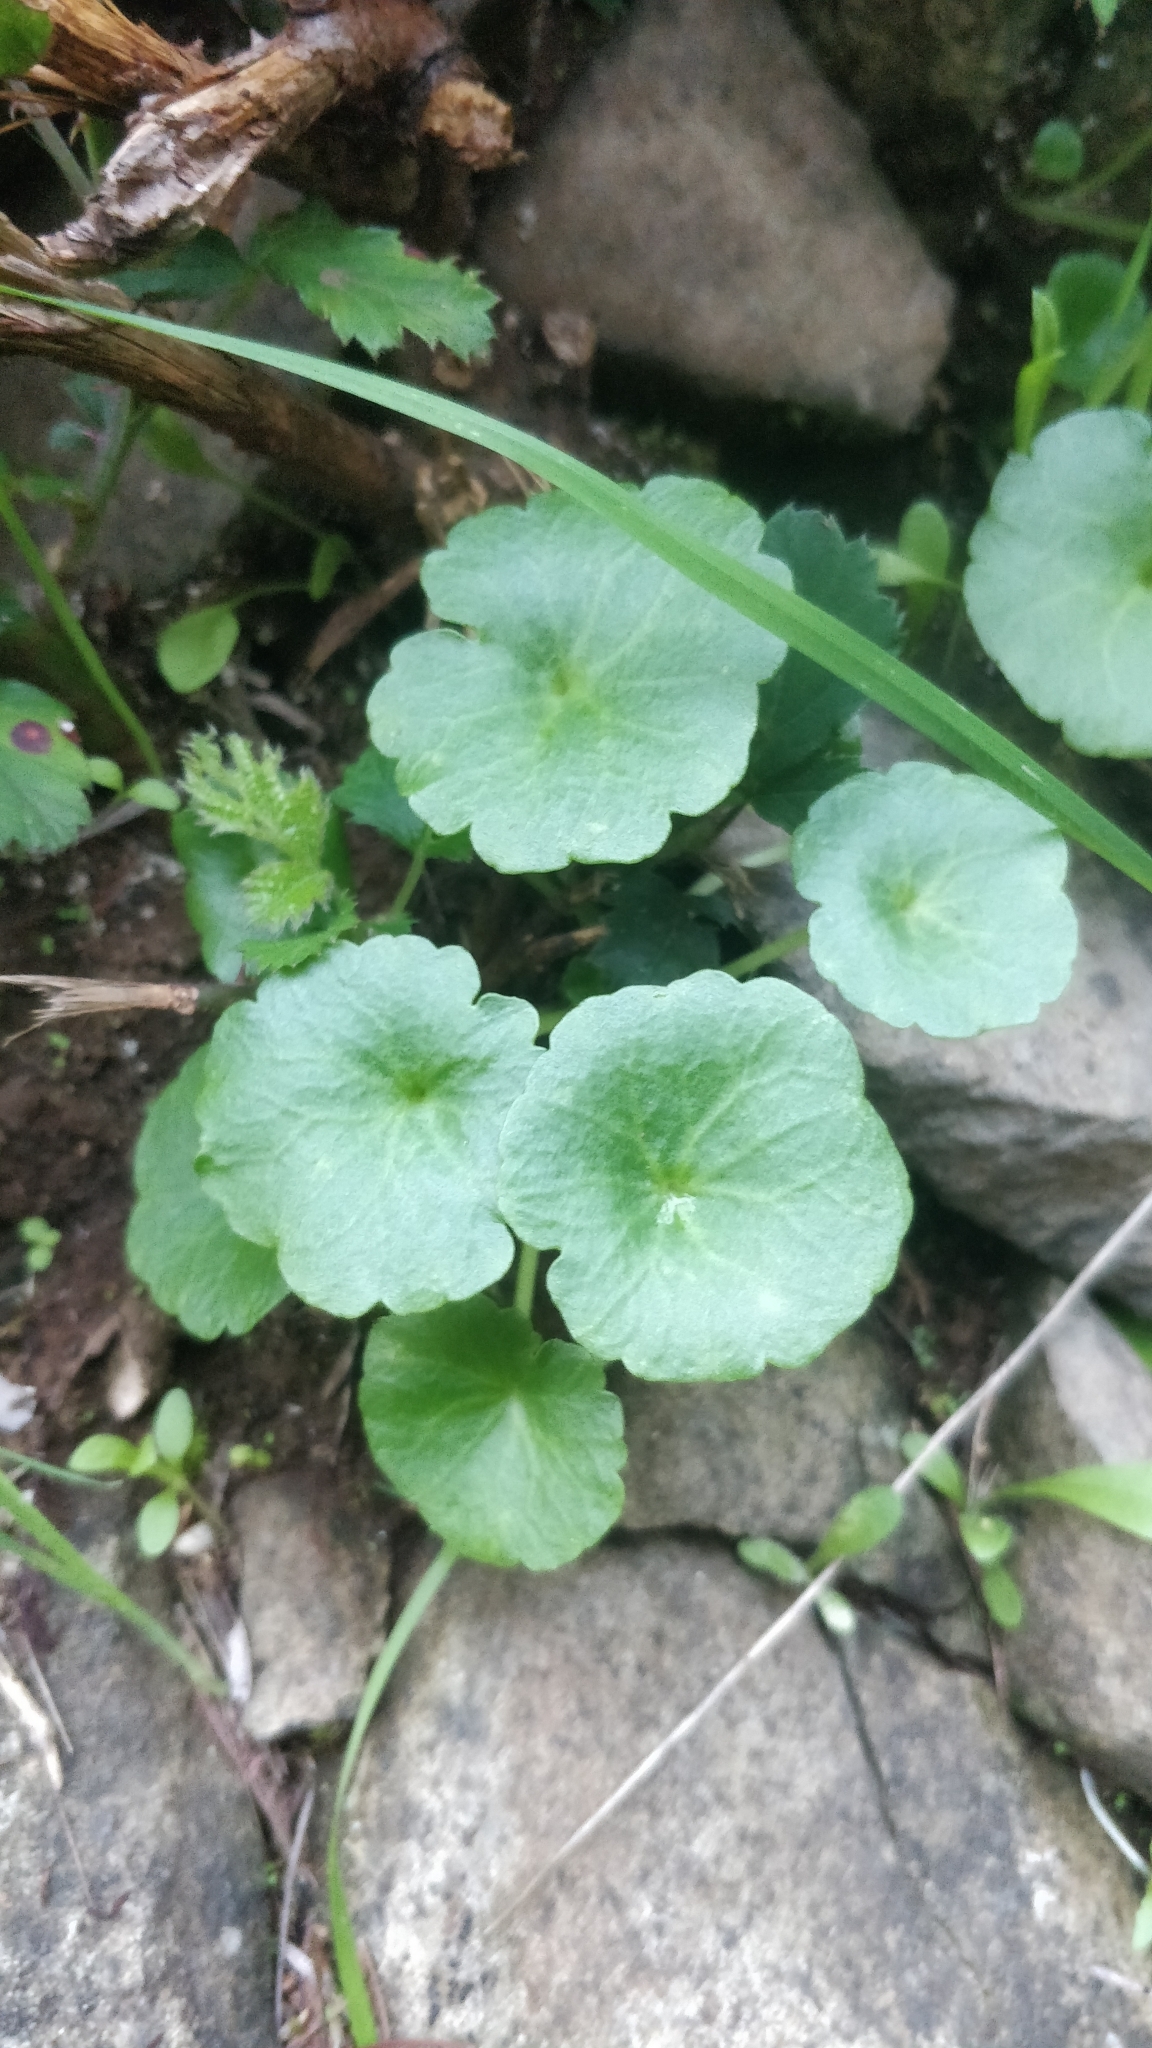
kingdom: Plantae
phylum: Tracheophyta
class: Magnoliopsida
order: Saxifragales
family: Crassulaceae
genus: Umbilicus
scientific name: Umbilicus rupestris
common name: Navelwort
